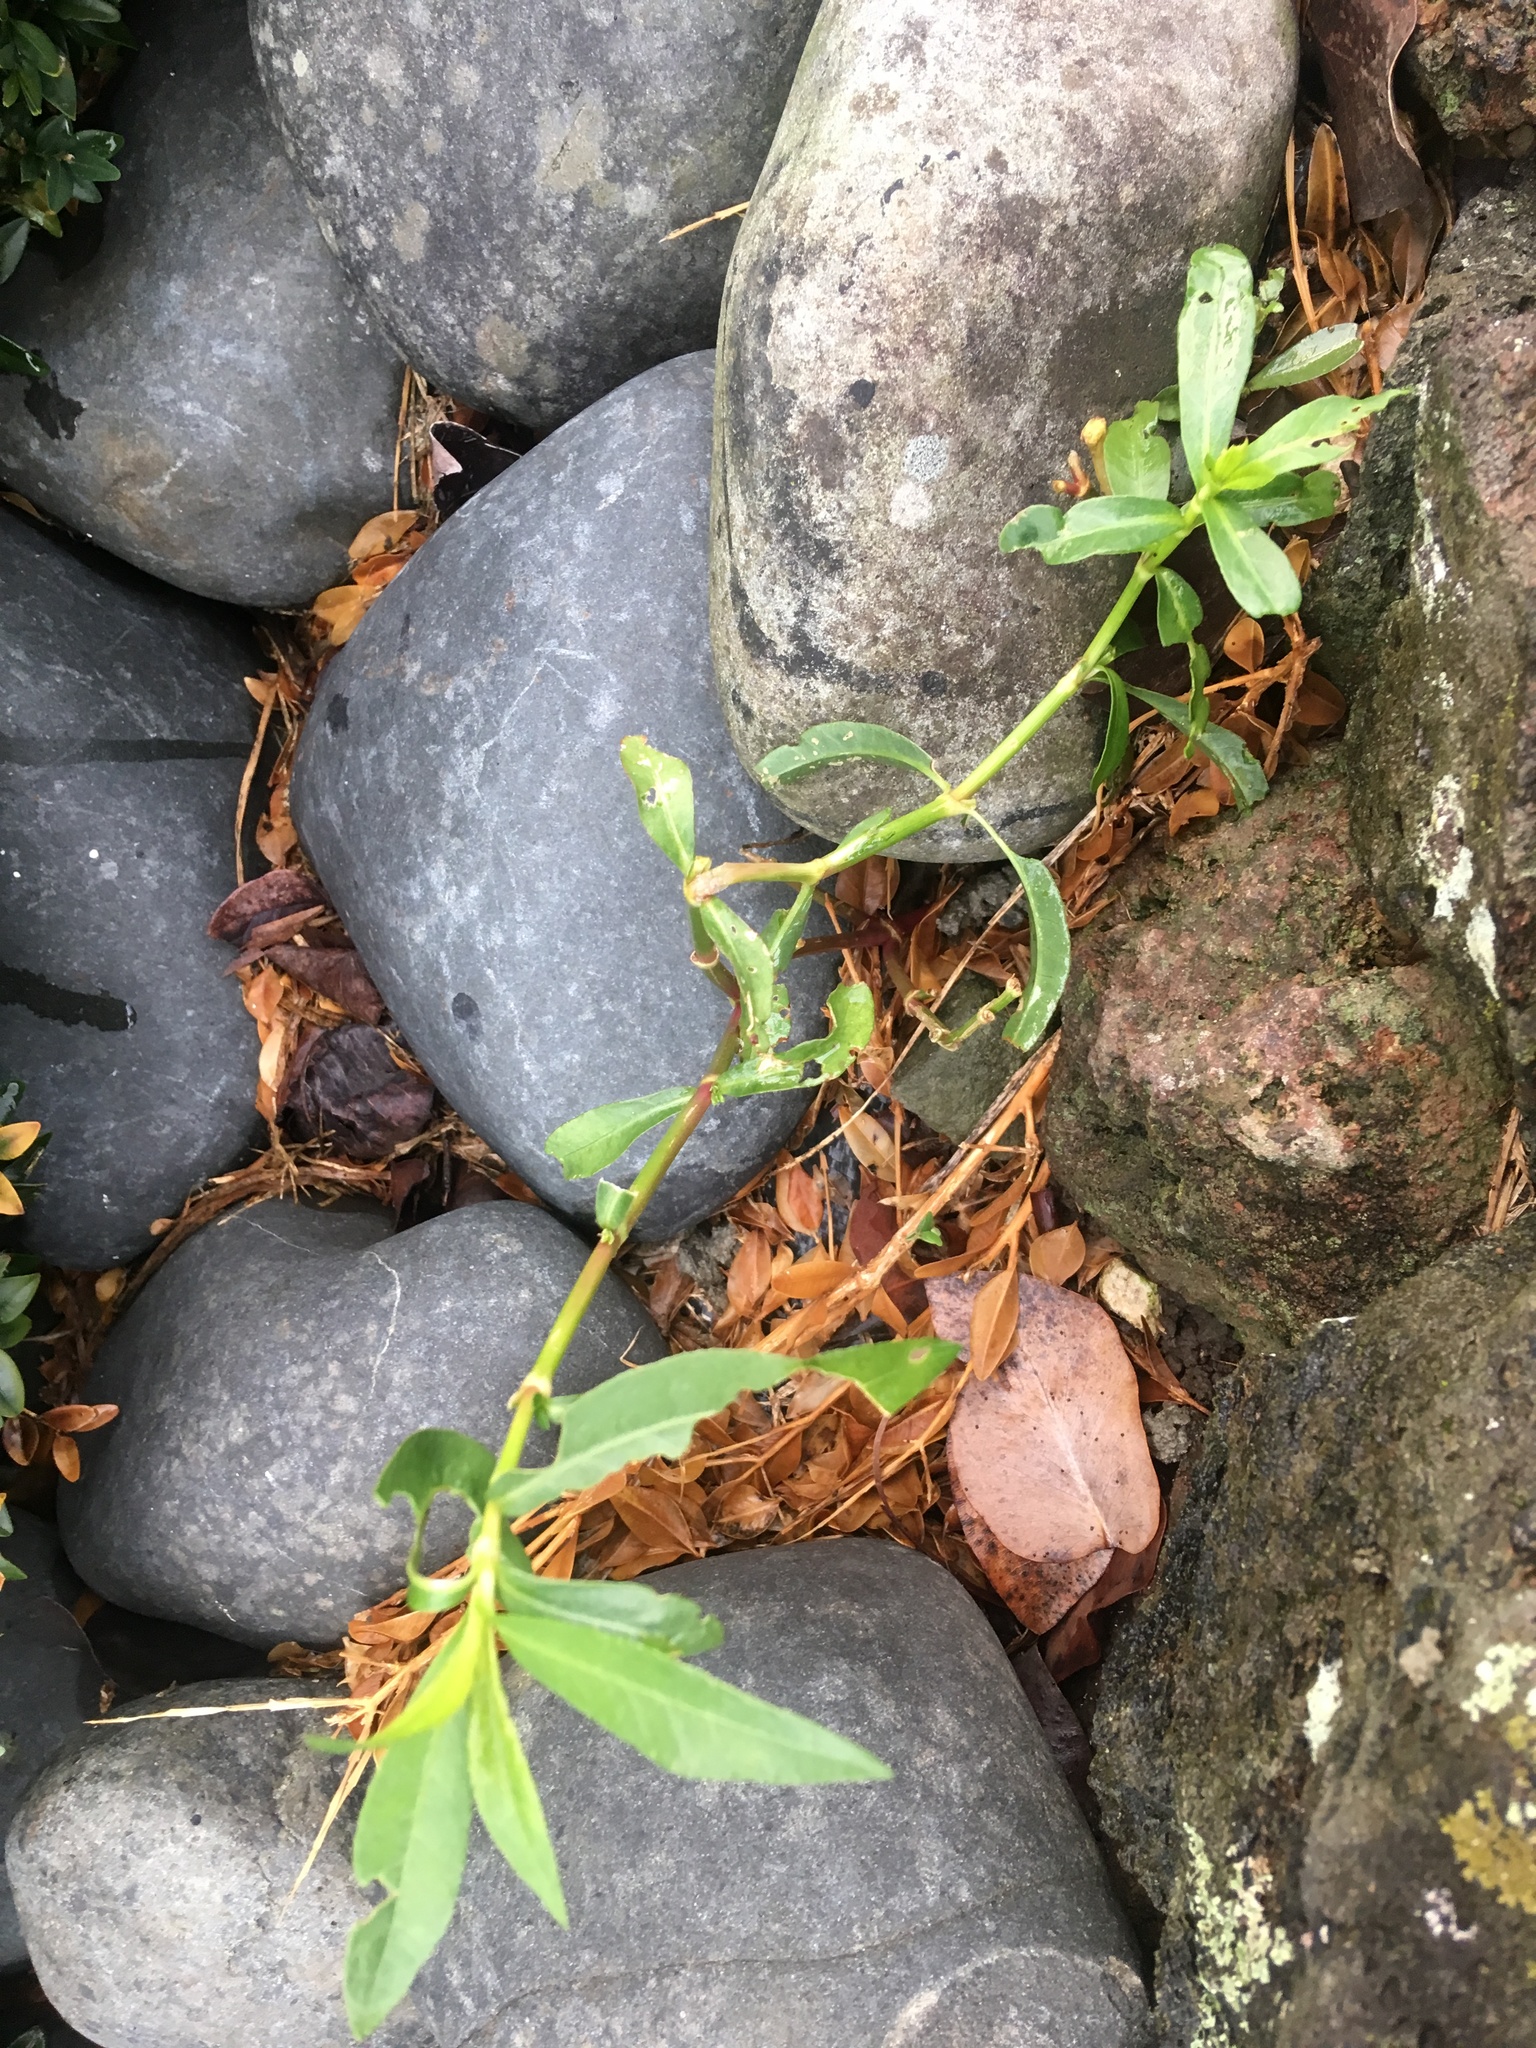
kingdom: Plantae
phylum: Tracheophyta
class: Magnoliopsida
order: Caryophyllales
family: Amaranthaceae
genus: Alternanthera
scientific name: Alternanthera philoxeroides
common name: Alligatorweed
